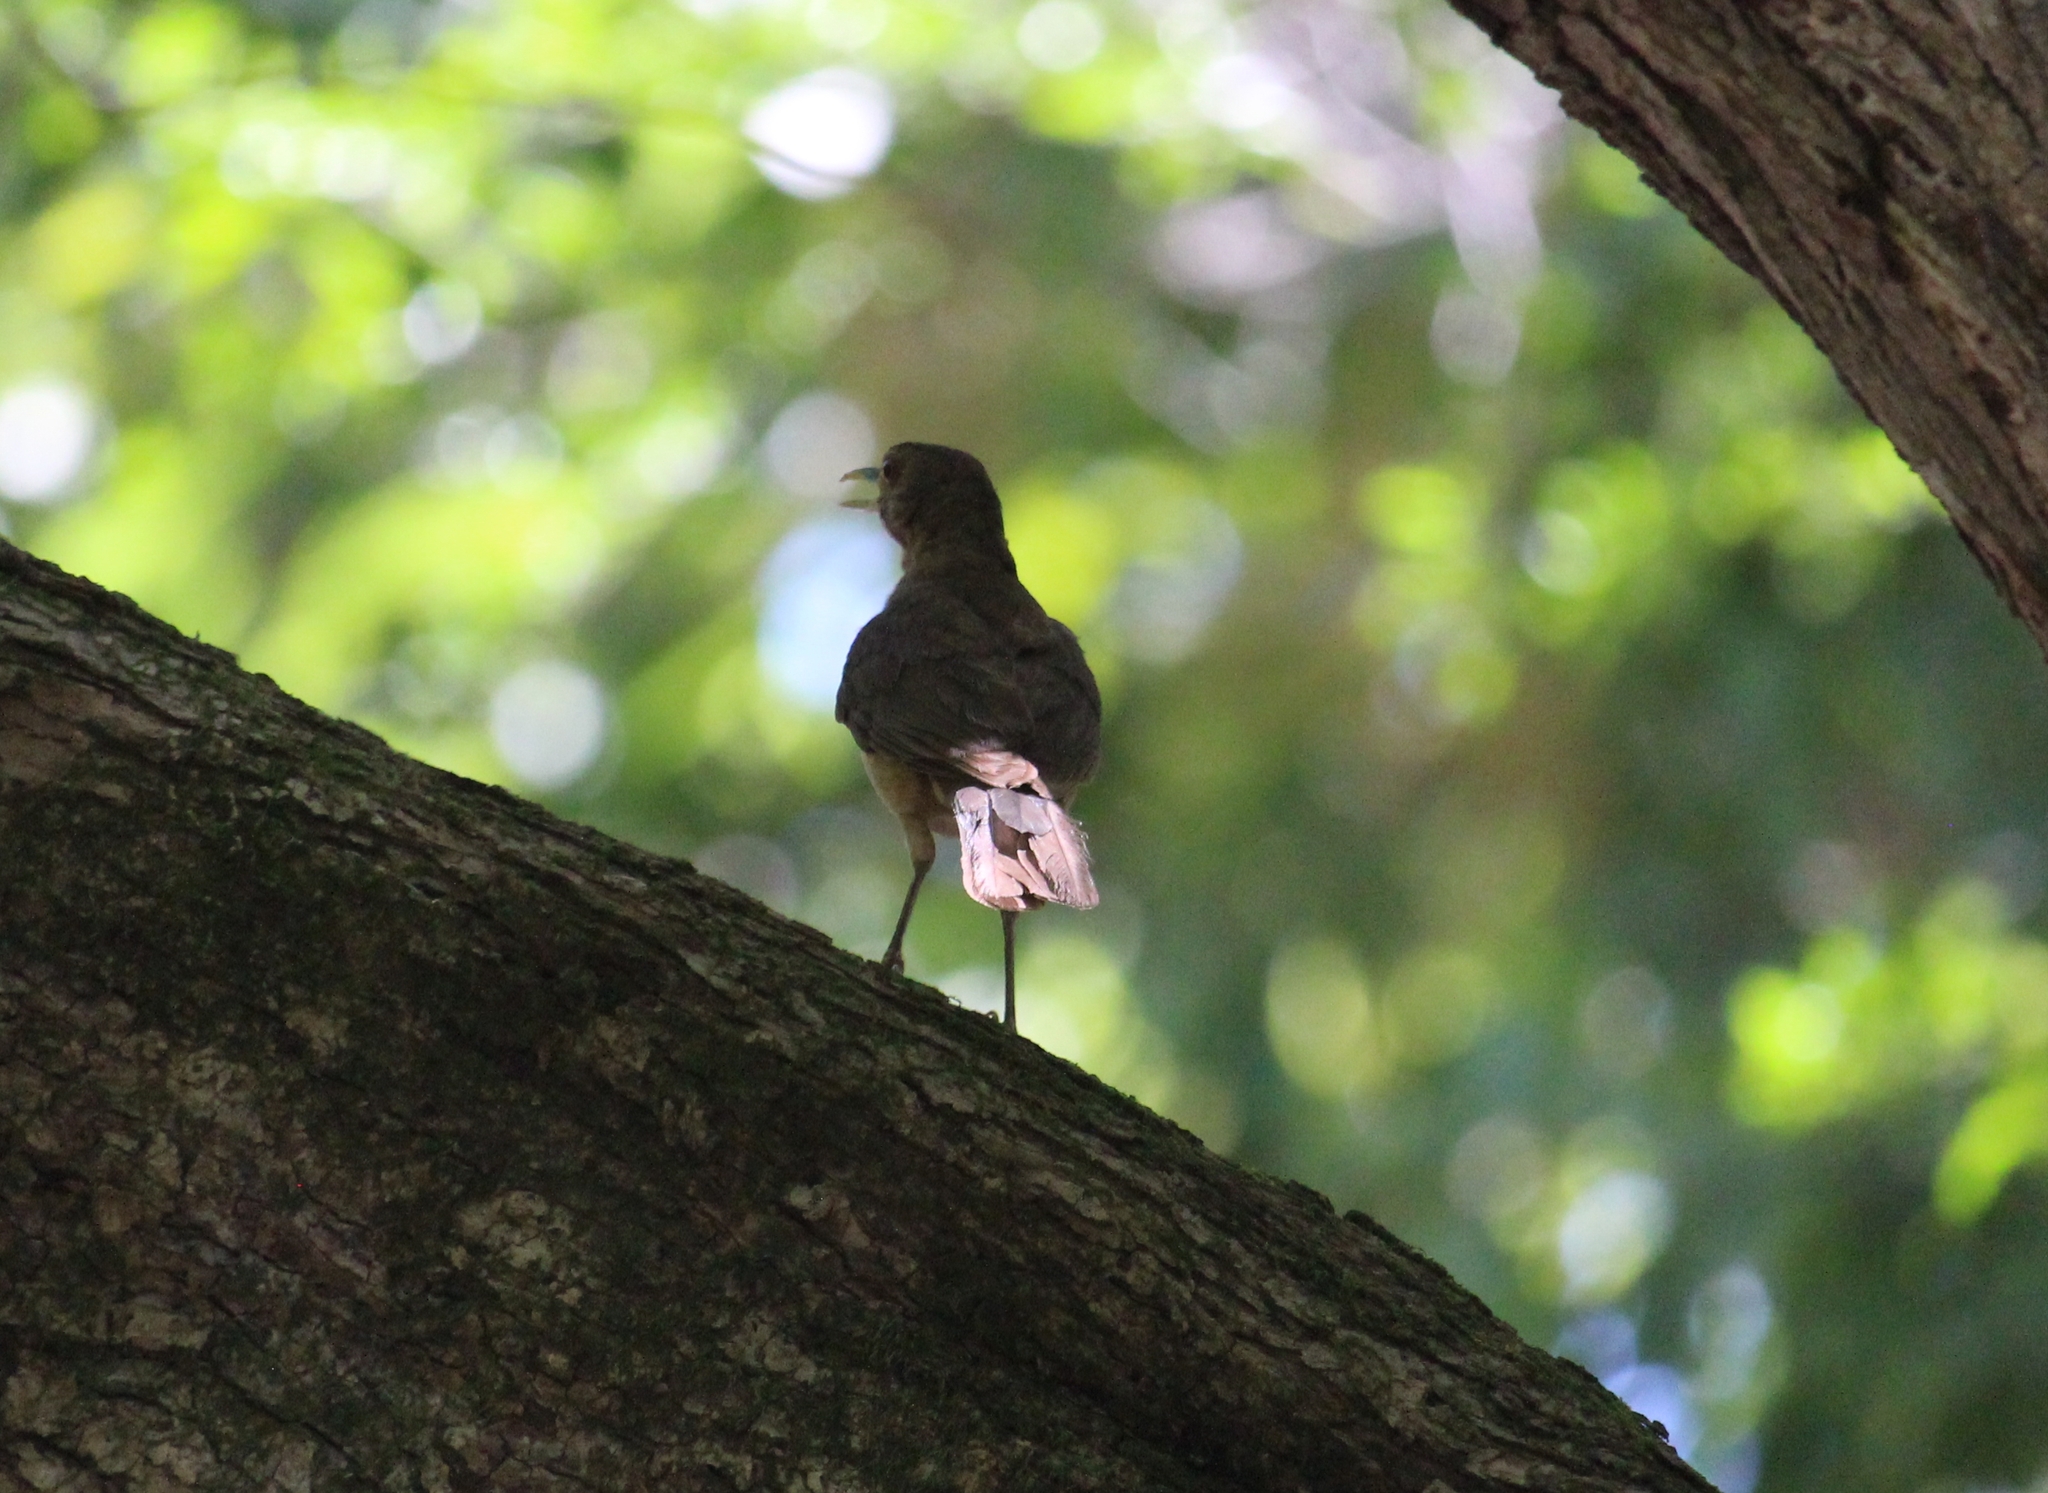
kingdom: Animalia
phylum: Chordata
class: Aves
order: Passeriformes
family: Turdidae
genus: Turdus
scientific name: Turdus grayi
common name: Clay-colored thrush
